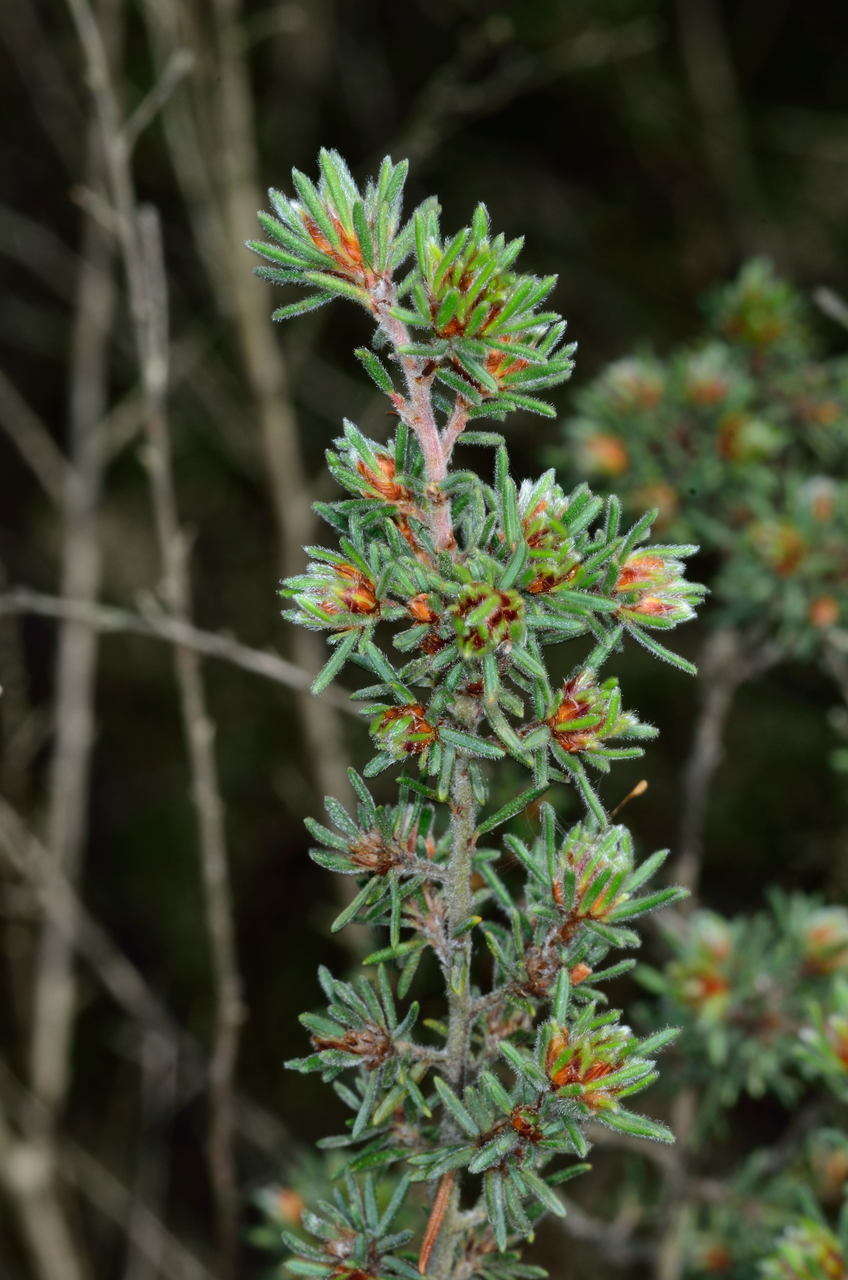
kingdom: Plantae
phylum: Tracheophyta
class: Magnoliopsida
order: Fabales
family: Fabaceae
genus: Pultenaea
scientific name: Pultenaea daltonii
